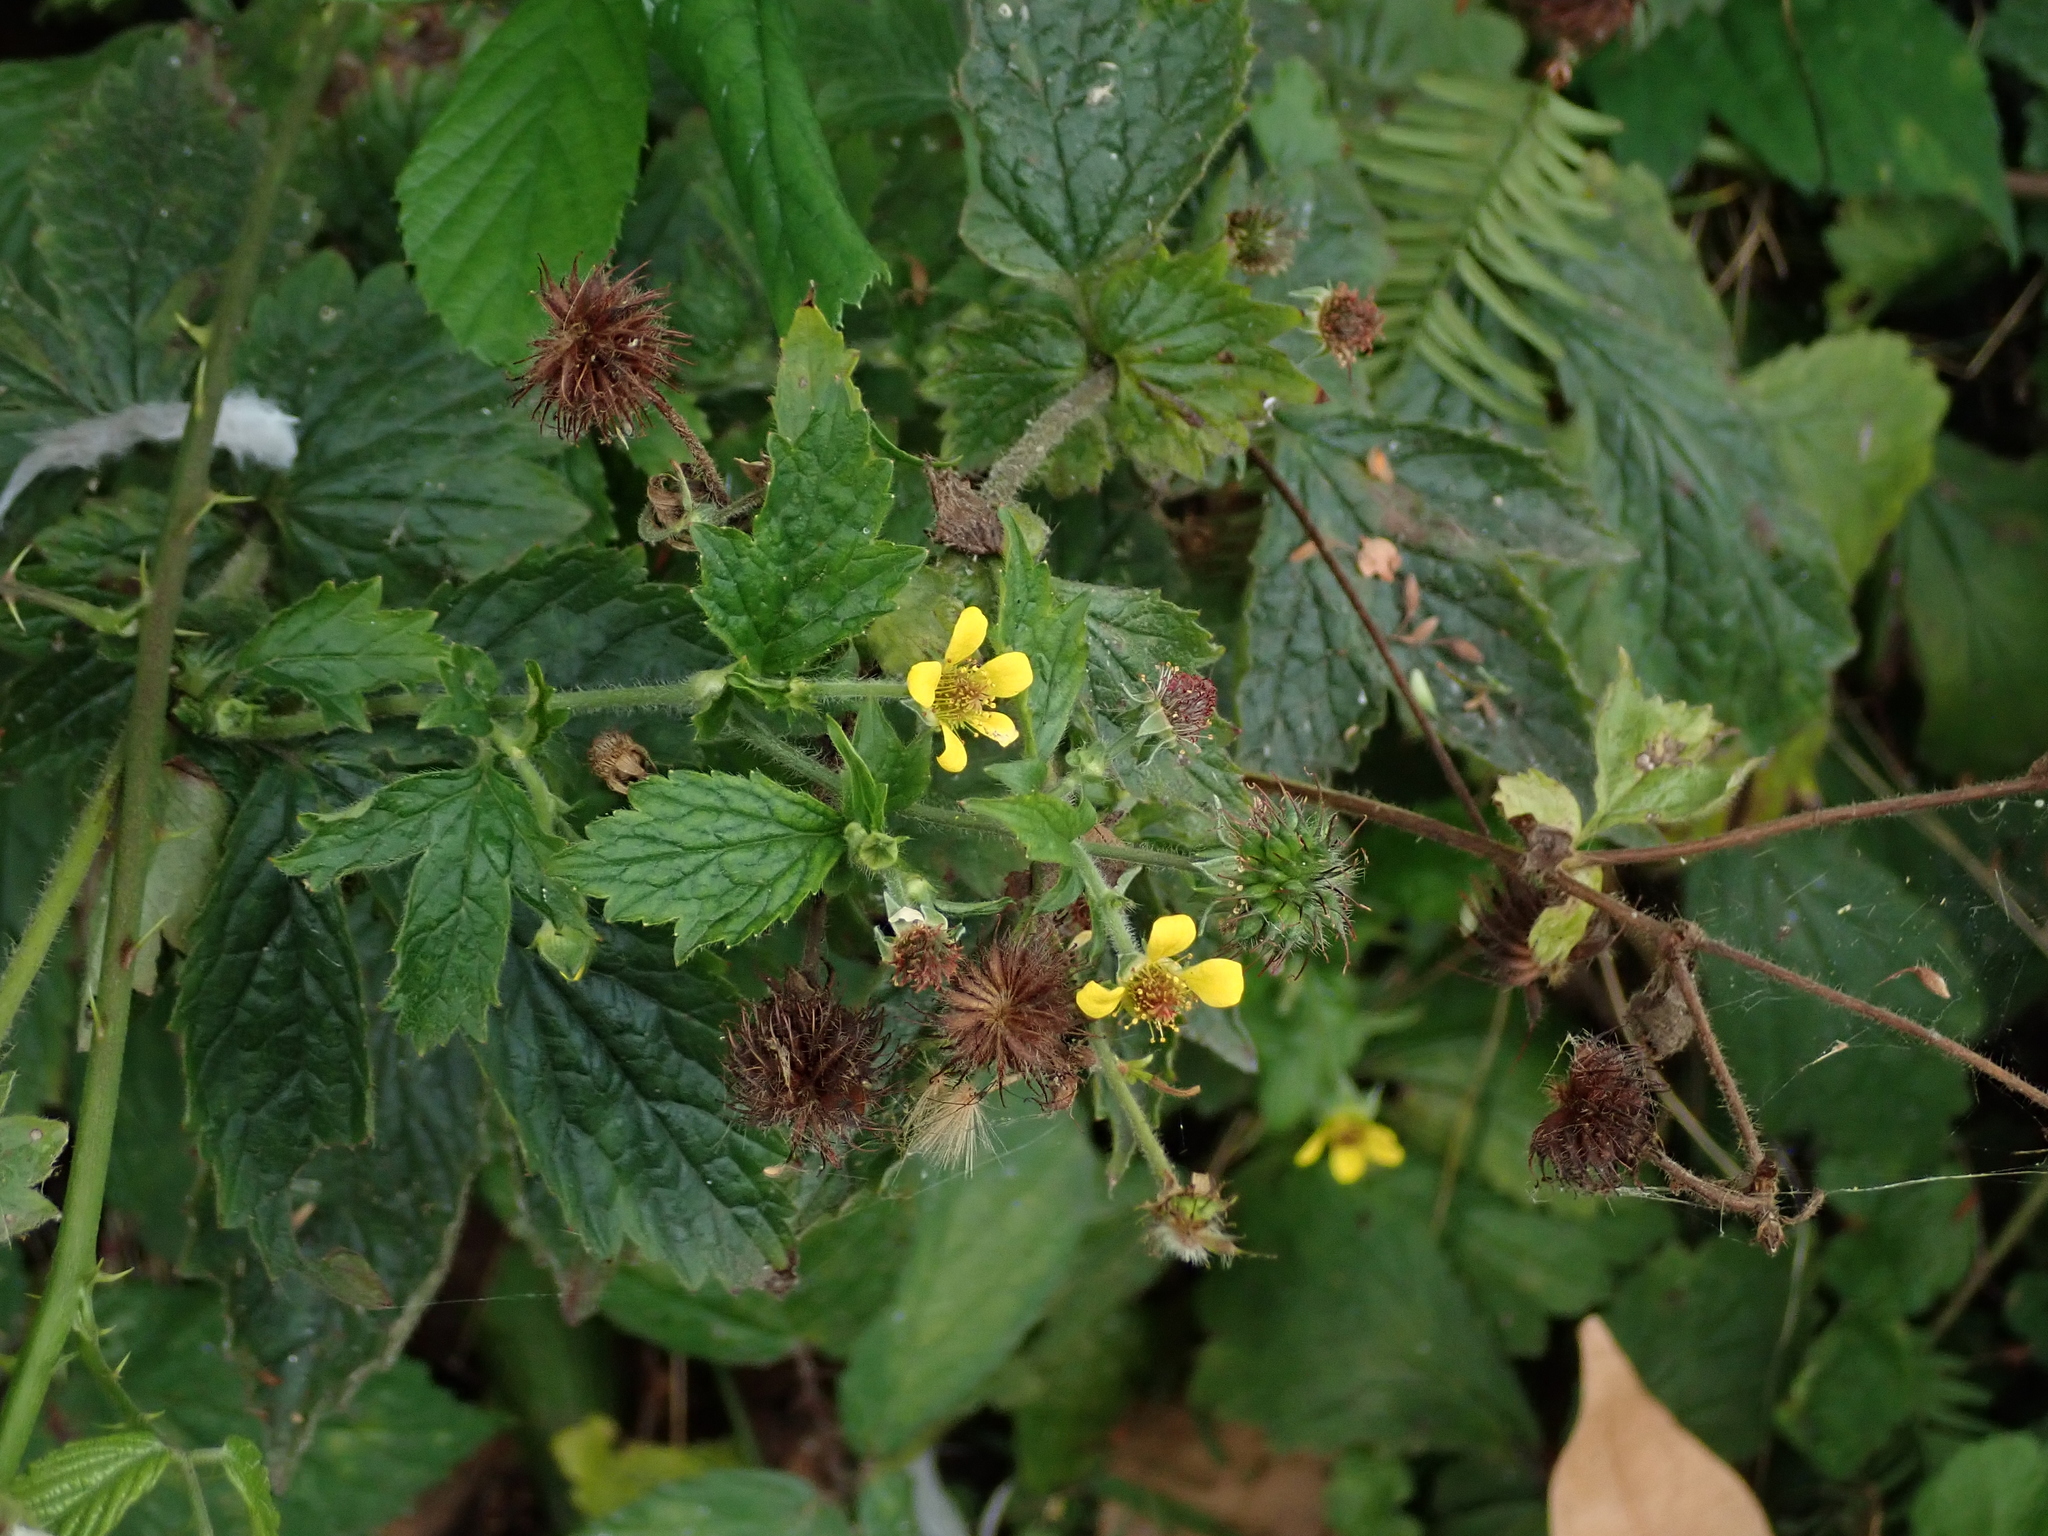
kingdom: Plantae
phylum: Tracheophyta
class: Magnoliopsida
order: Rosales
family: Rosaceae
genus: Geum
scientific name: Geum urbanum
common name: Wood avens
